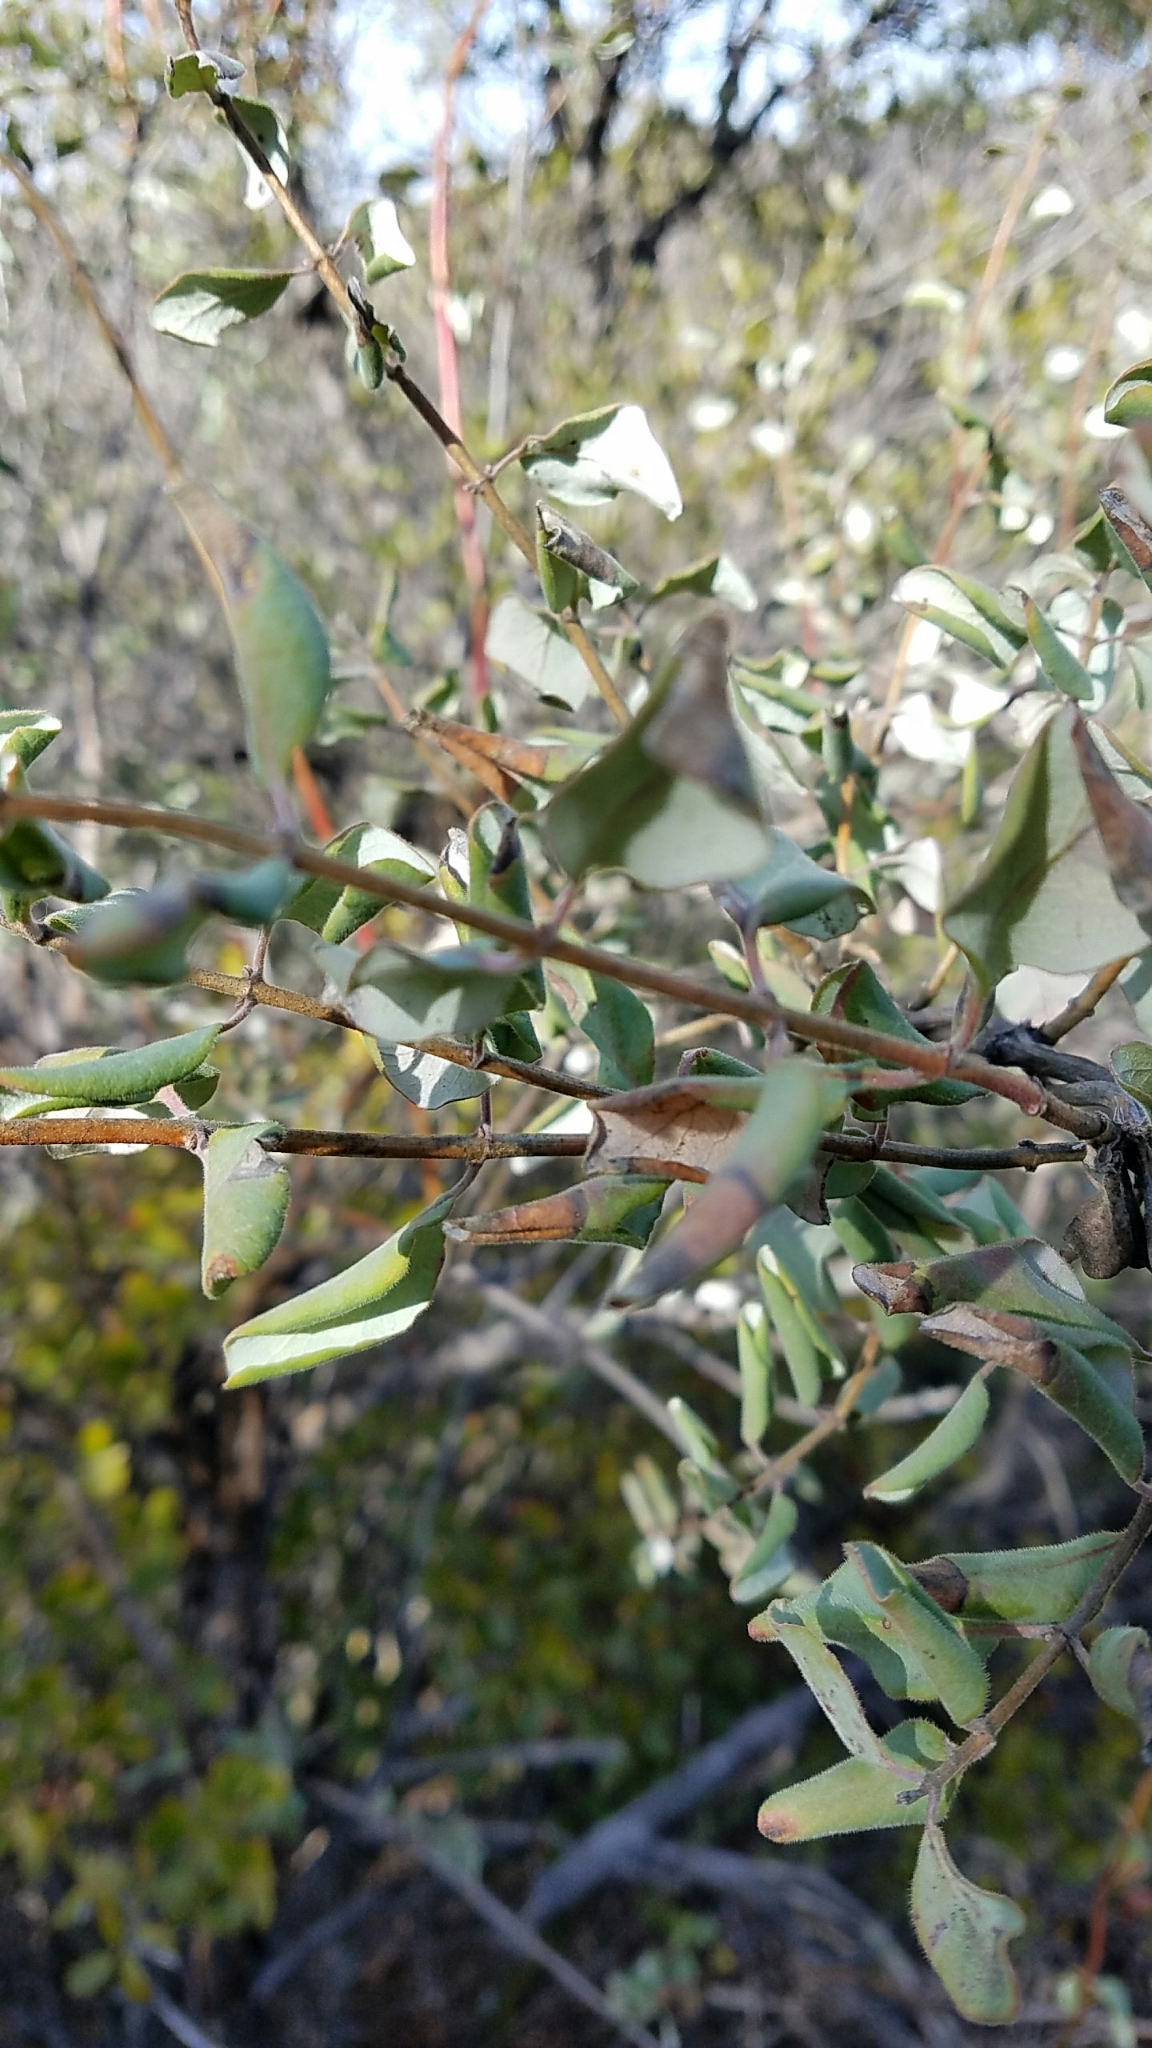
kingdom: Plantae
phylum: Tracheophyta
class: Magnoliopsida
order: Dipsacales
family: Caprifoliaceae
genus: Lonicera
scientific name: Lonicera subspicata
